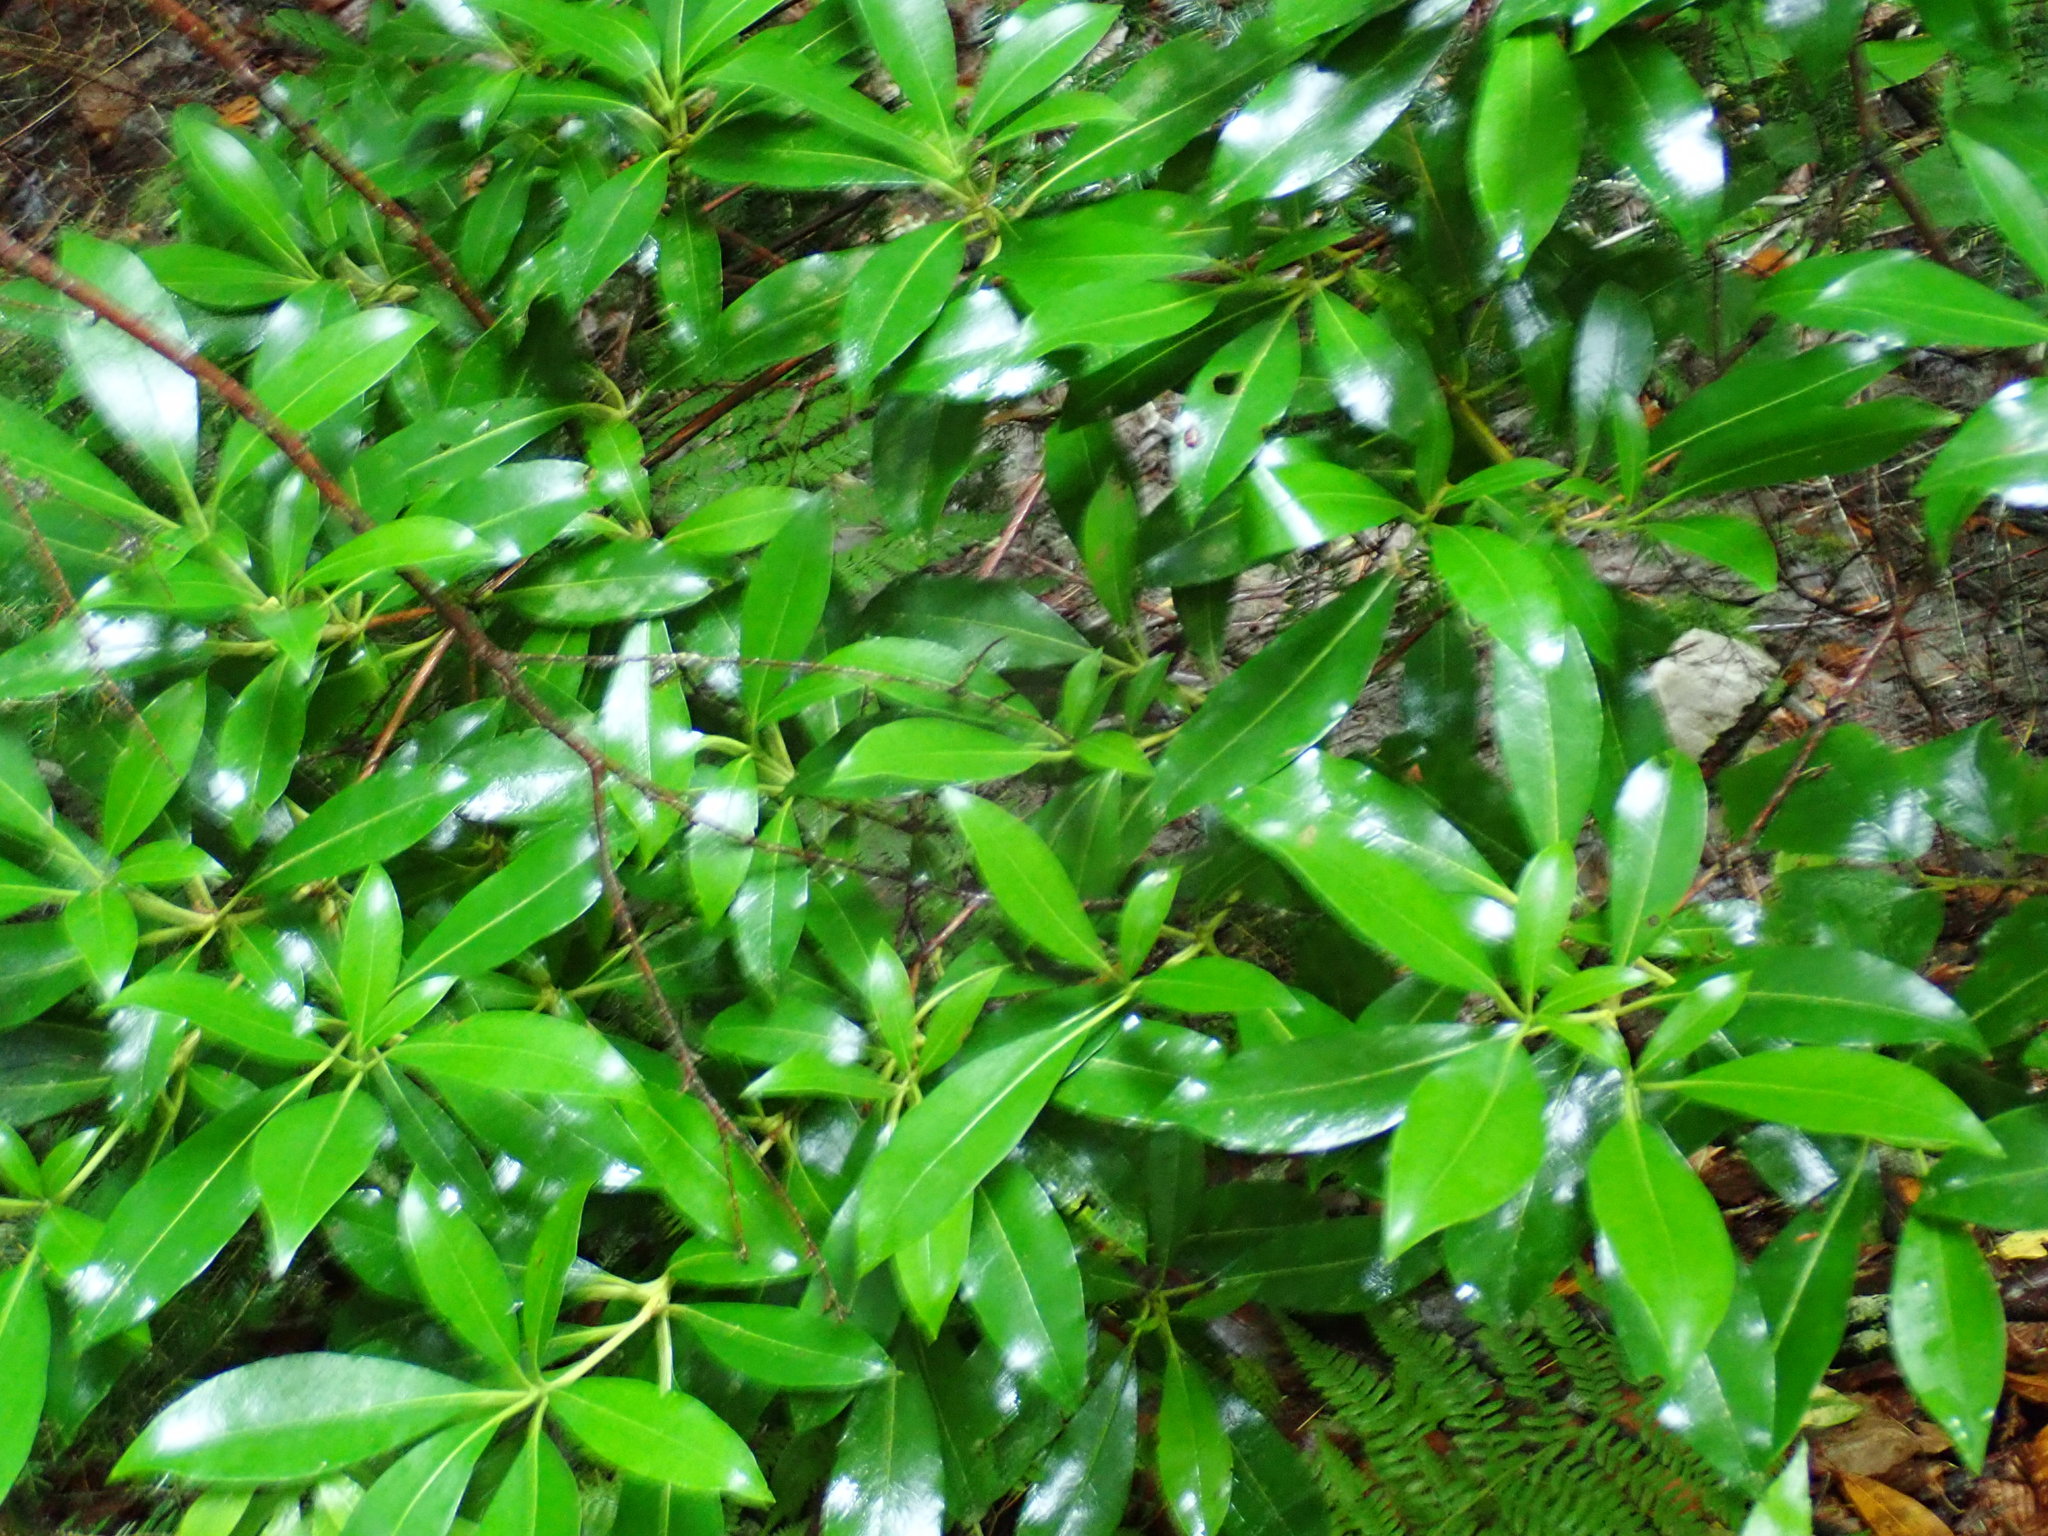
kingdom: Plantae
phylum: Tracheophyta
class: Magnoliopsida
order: Ericales
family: Ericaceae
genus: Kalmia
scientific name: Kalmia latifolia
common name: Mountain-laurel
